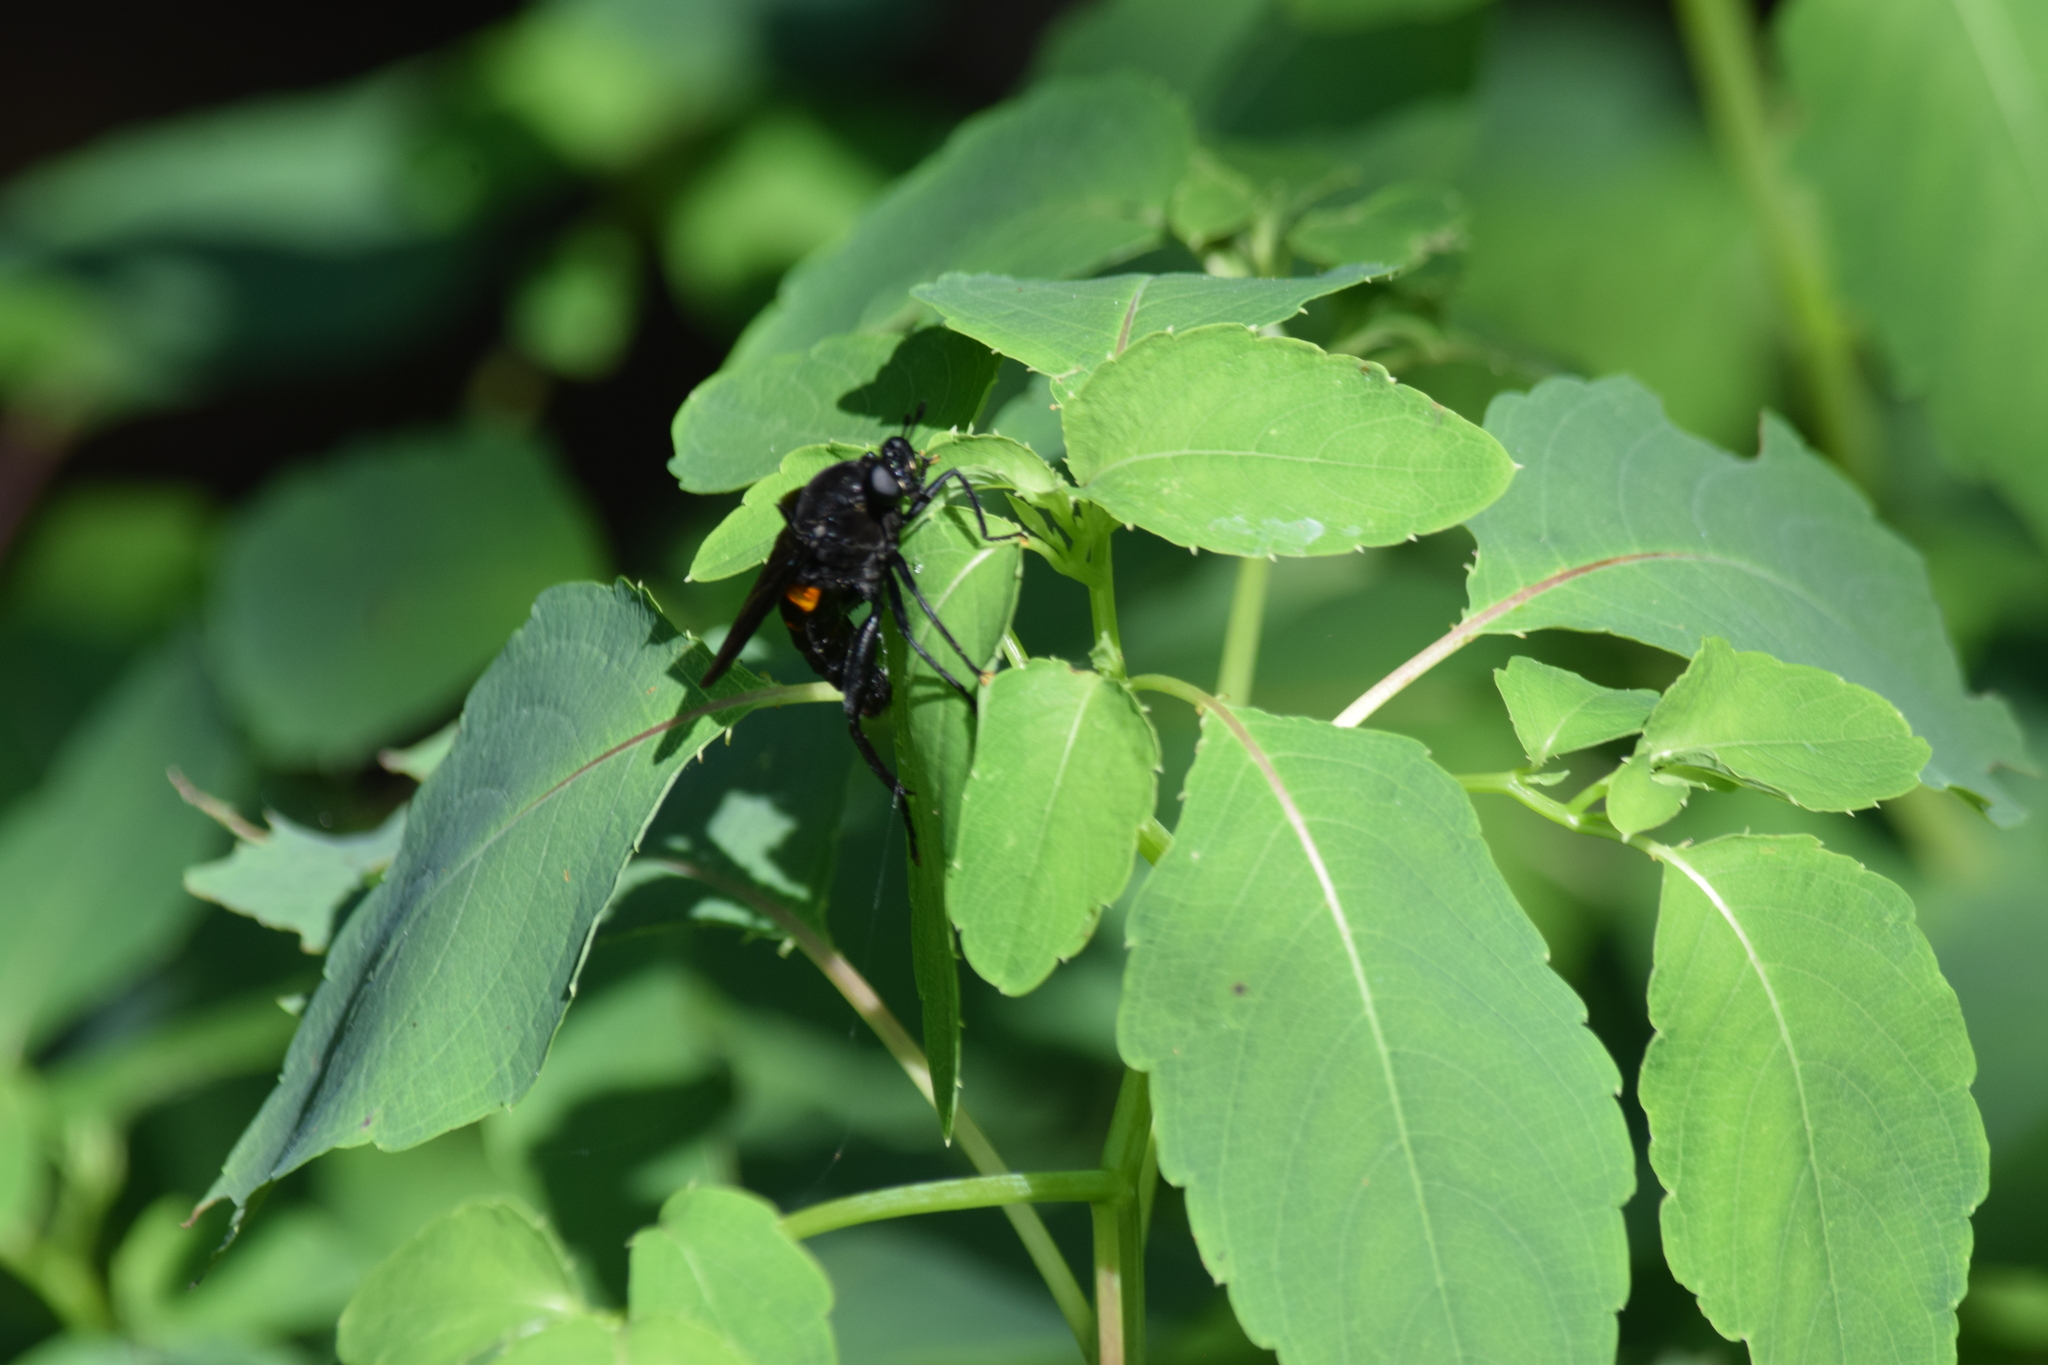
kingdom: Animalia
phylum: Arthropoda
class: Insecta
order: Diptera
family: Mydidae
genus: Mydas
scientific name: Mydas clavatus
